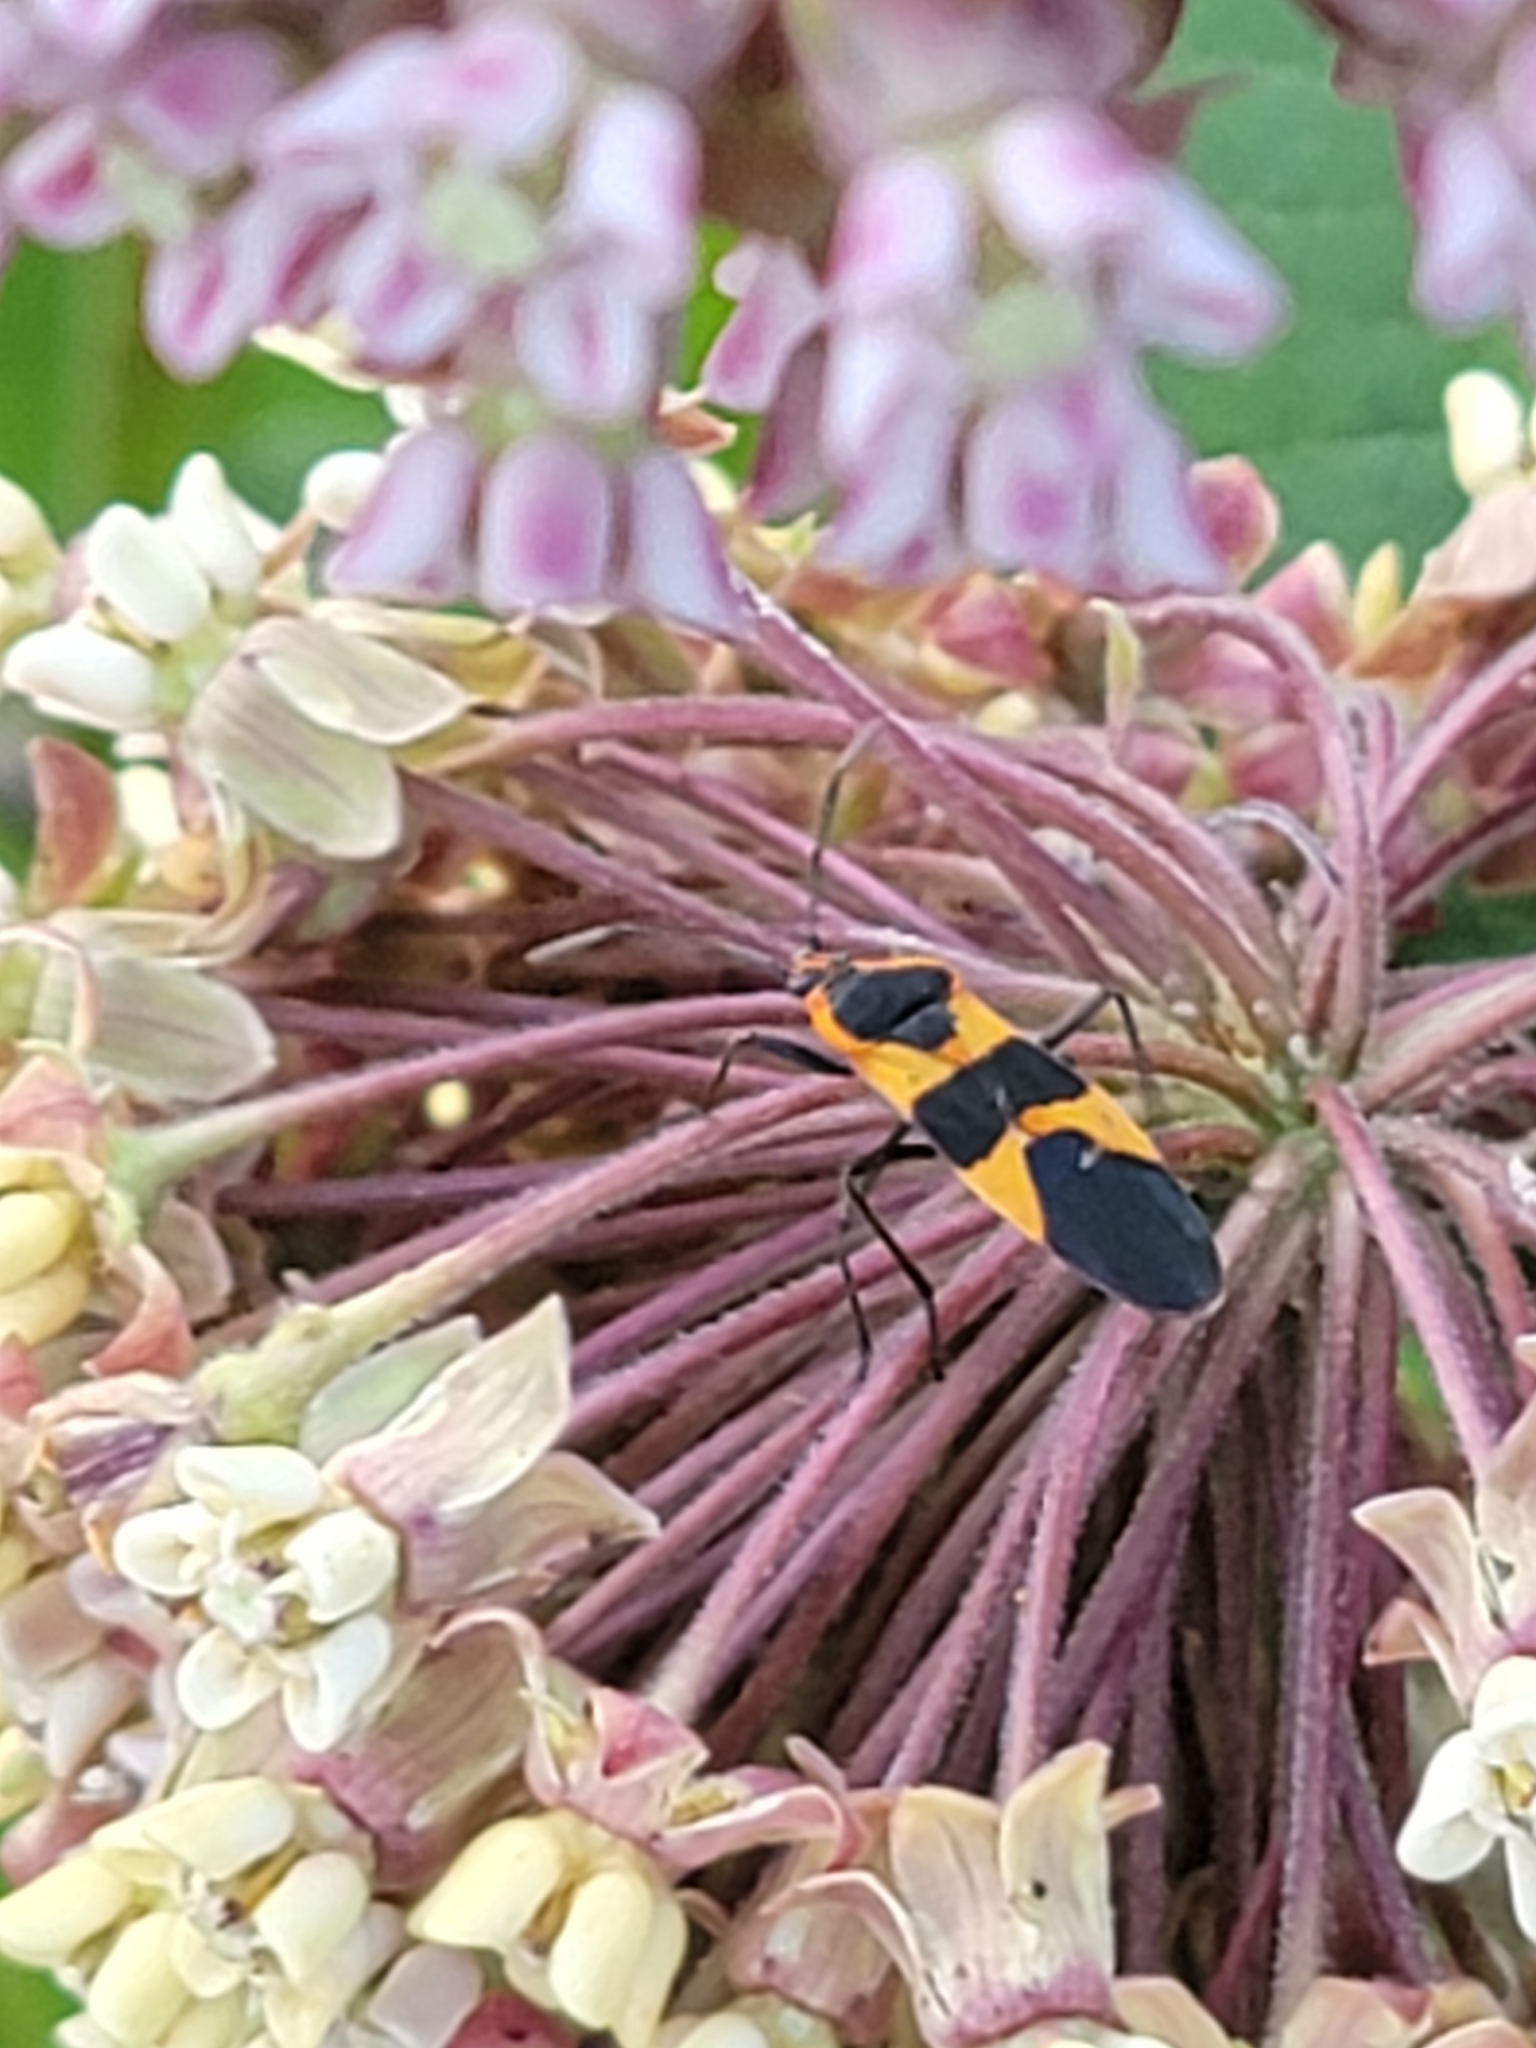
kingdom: Animalia
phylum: Arthropoda
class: Insecta
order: Hemiptera
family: Lygaeidae
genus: Oncopeltus
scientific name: Oncopeltus fasciatus
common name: Large milkweed bug
